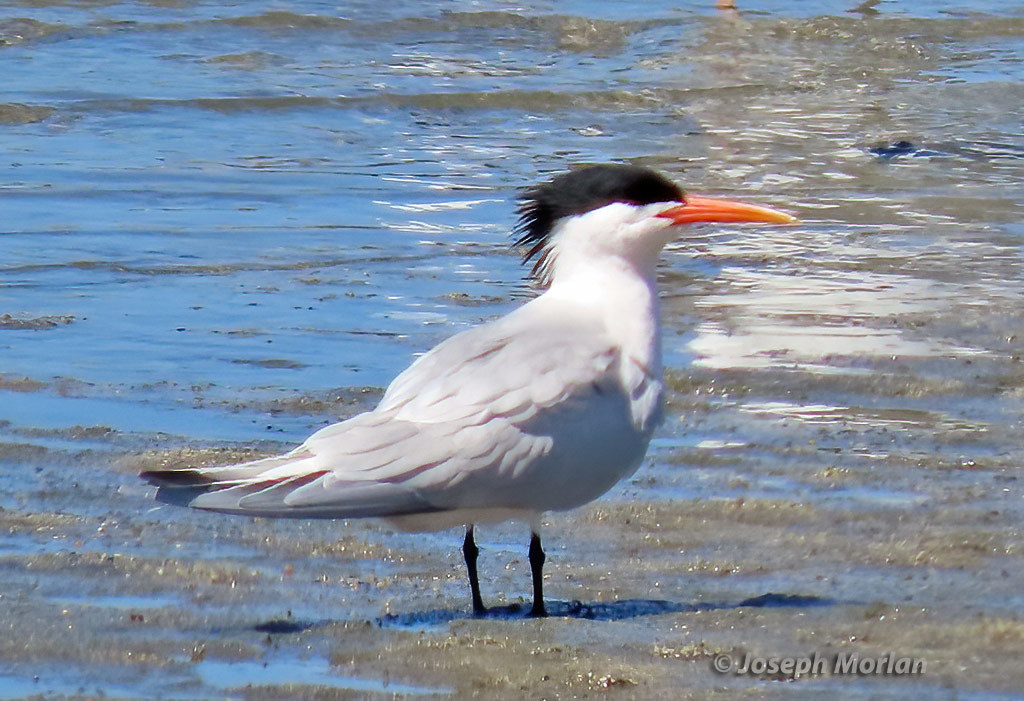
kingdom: Animalia
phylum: Chordata
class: Aves
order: Charadriiformes
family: Laridae
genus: Thalasseus
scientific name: Thalasseus elegans
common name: Elegant tern
